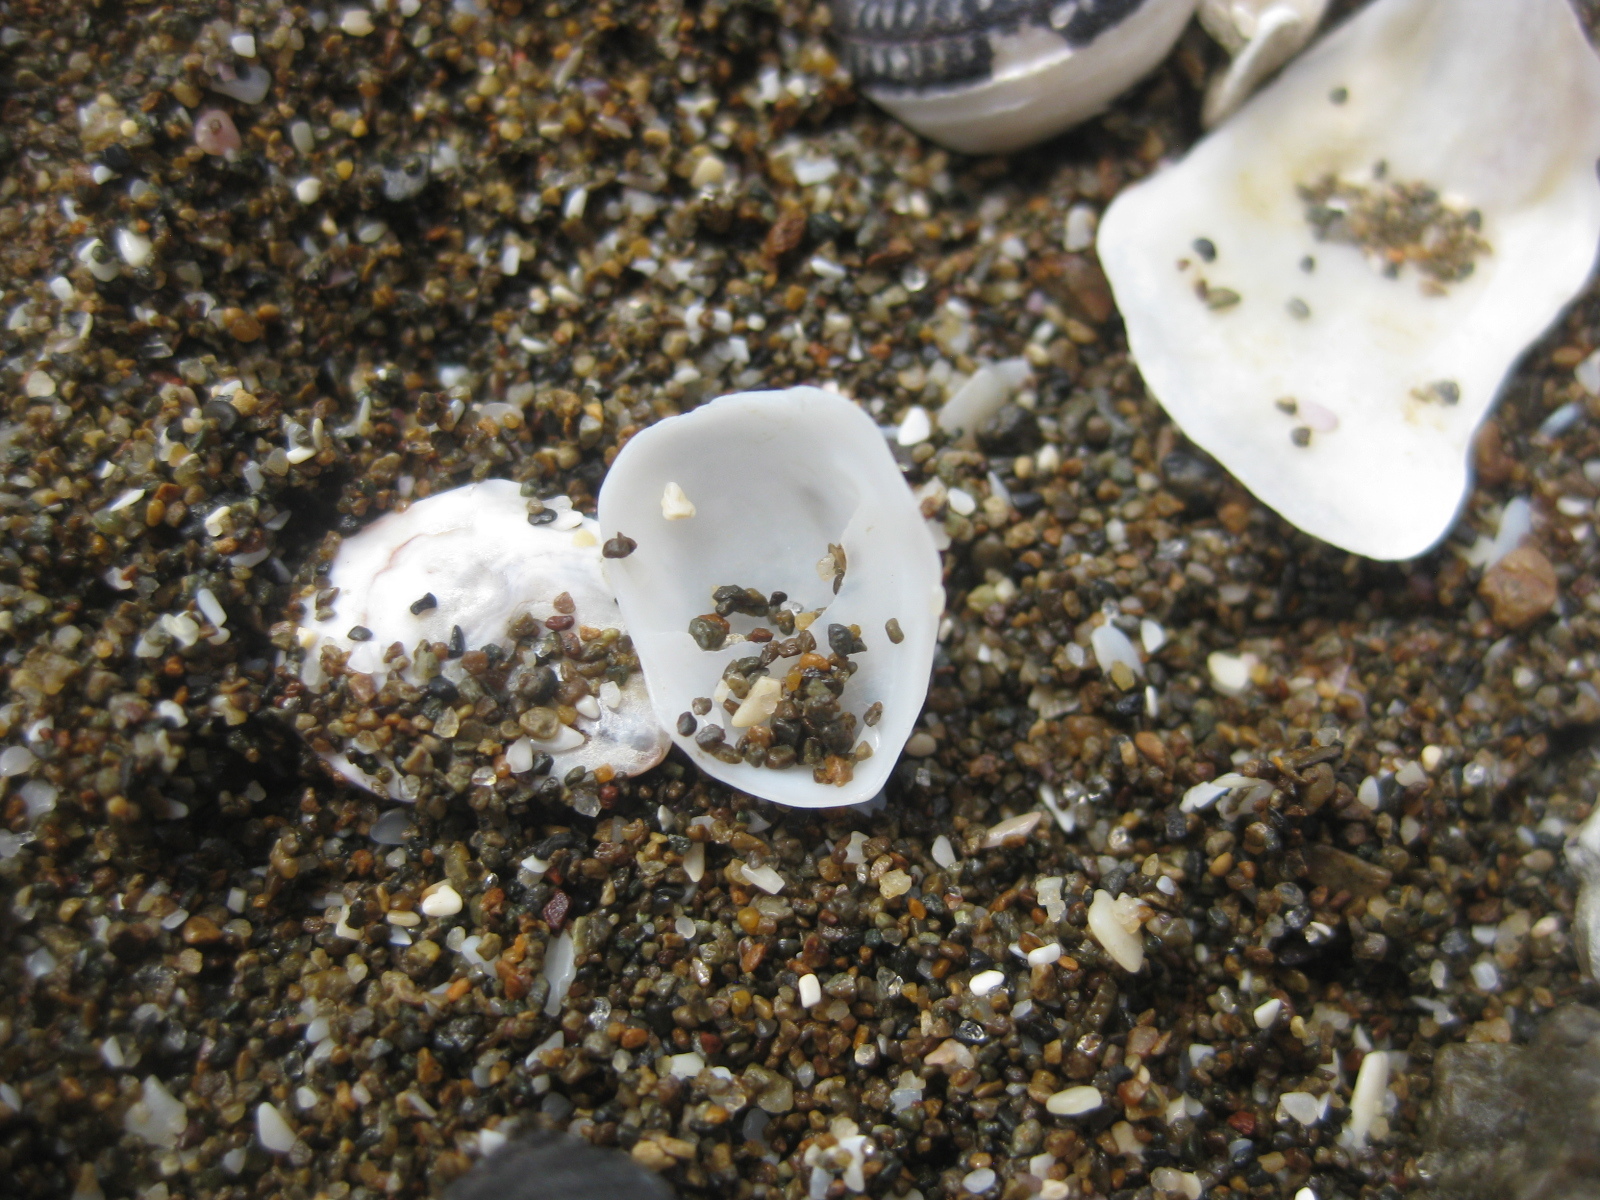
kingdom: Animalia
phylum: Mollusca
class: Gastropoda
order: Littorinimorpha
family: Calyptraeidae
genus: Maoricrypta
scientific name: Maoricrypta monoxyla
